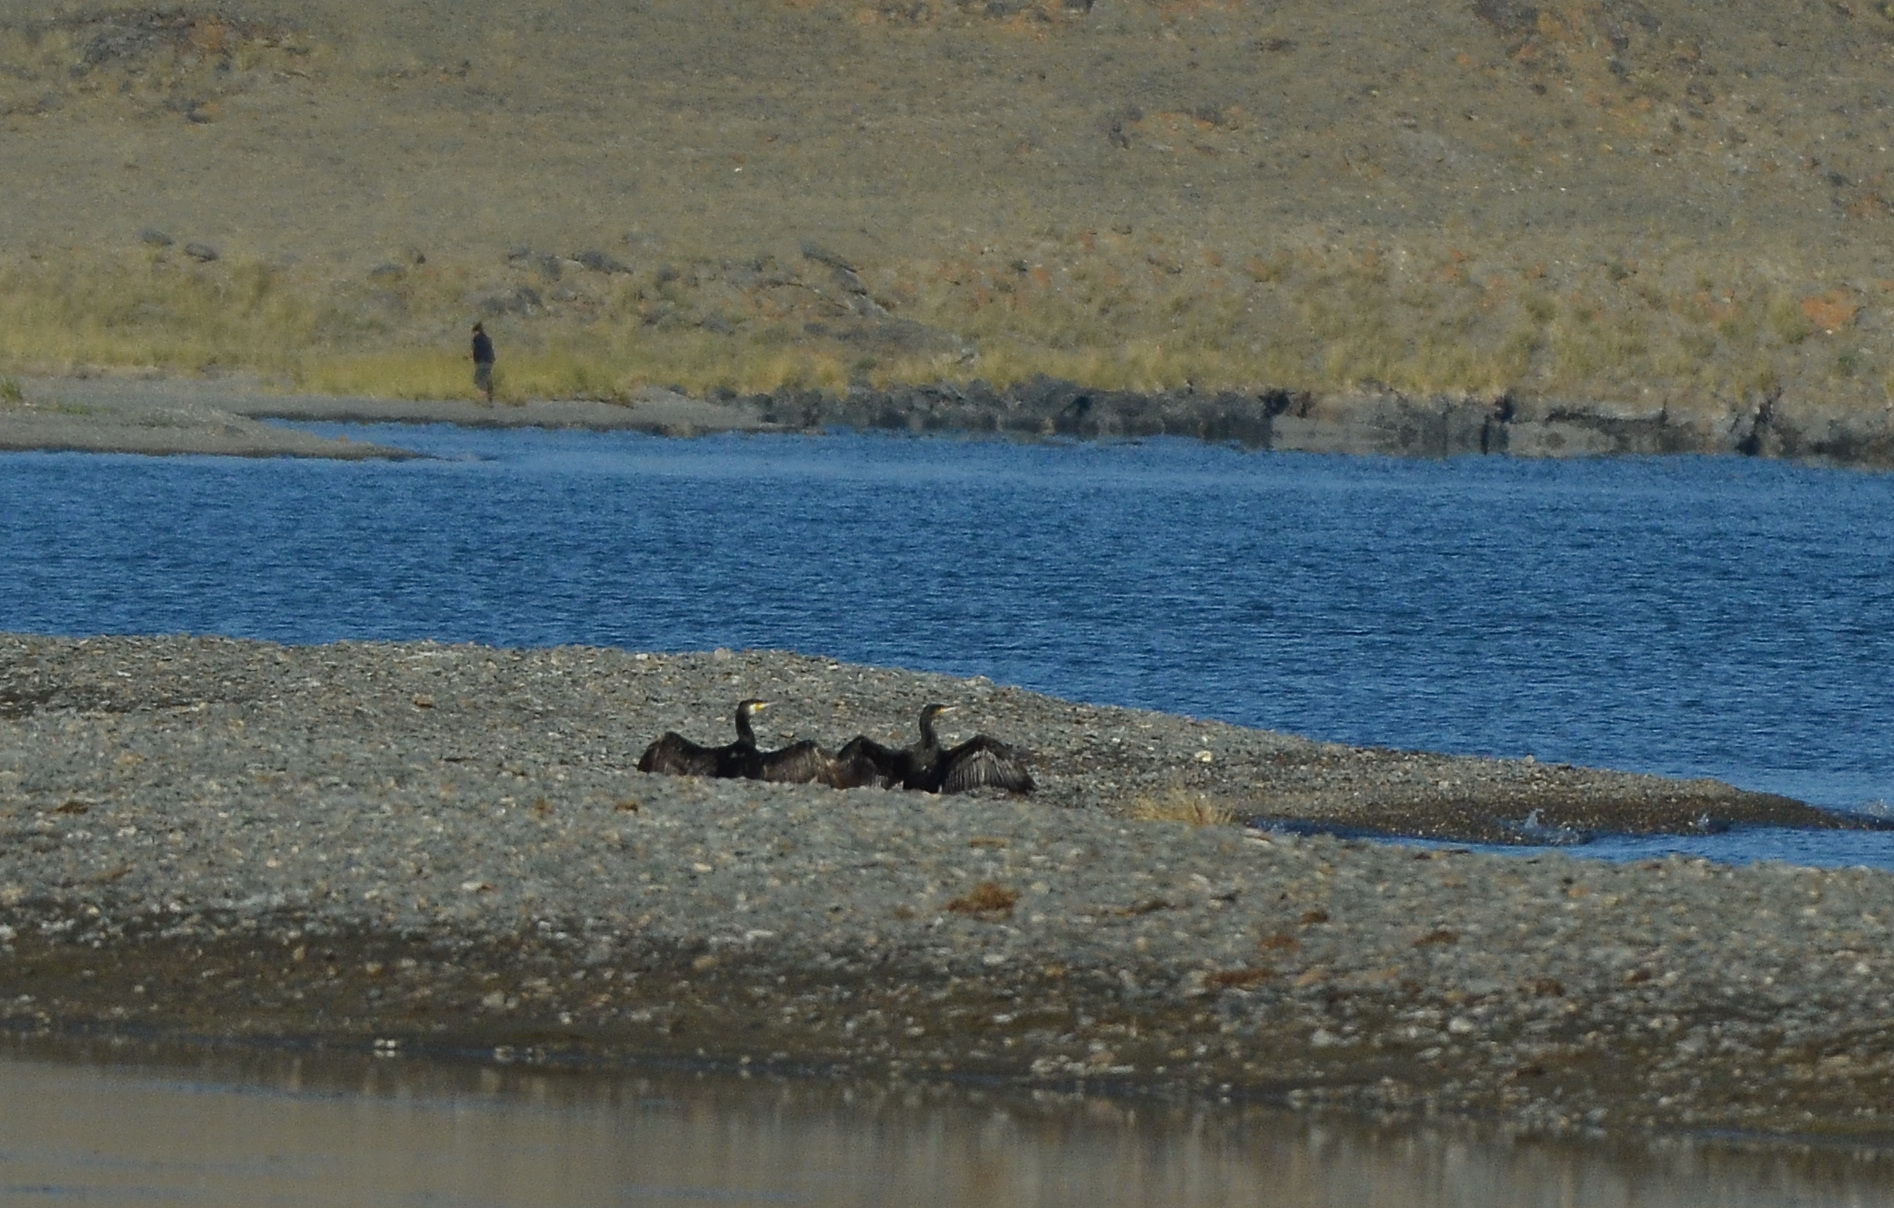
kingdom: Animalia
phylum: Chordata
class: Aves
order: Suliformes
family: Phalacrocoracidae
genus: Phalacrocorax
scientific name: Phalacrocorax carbo
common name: Great cormorant
